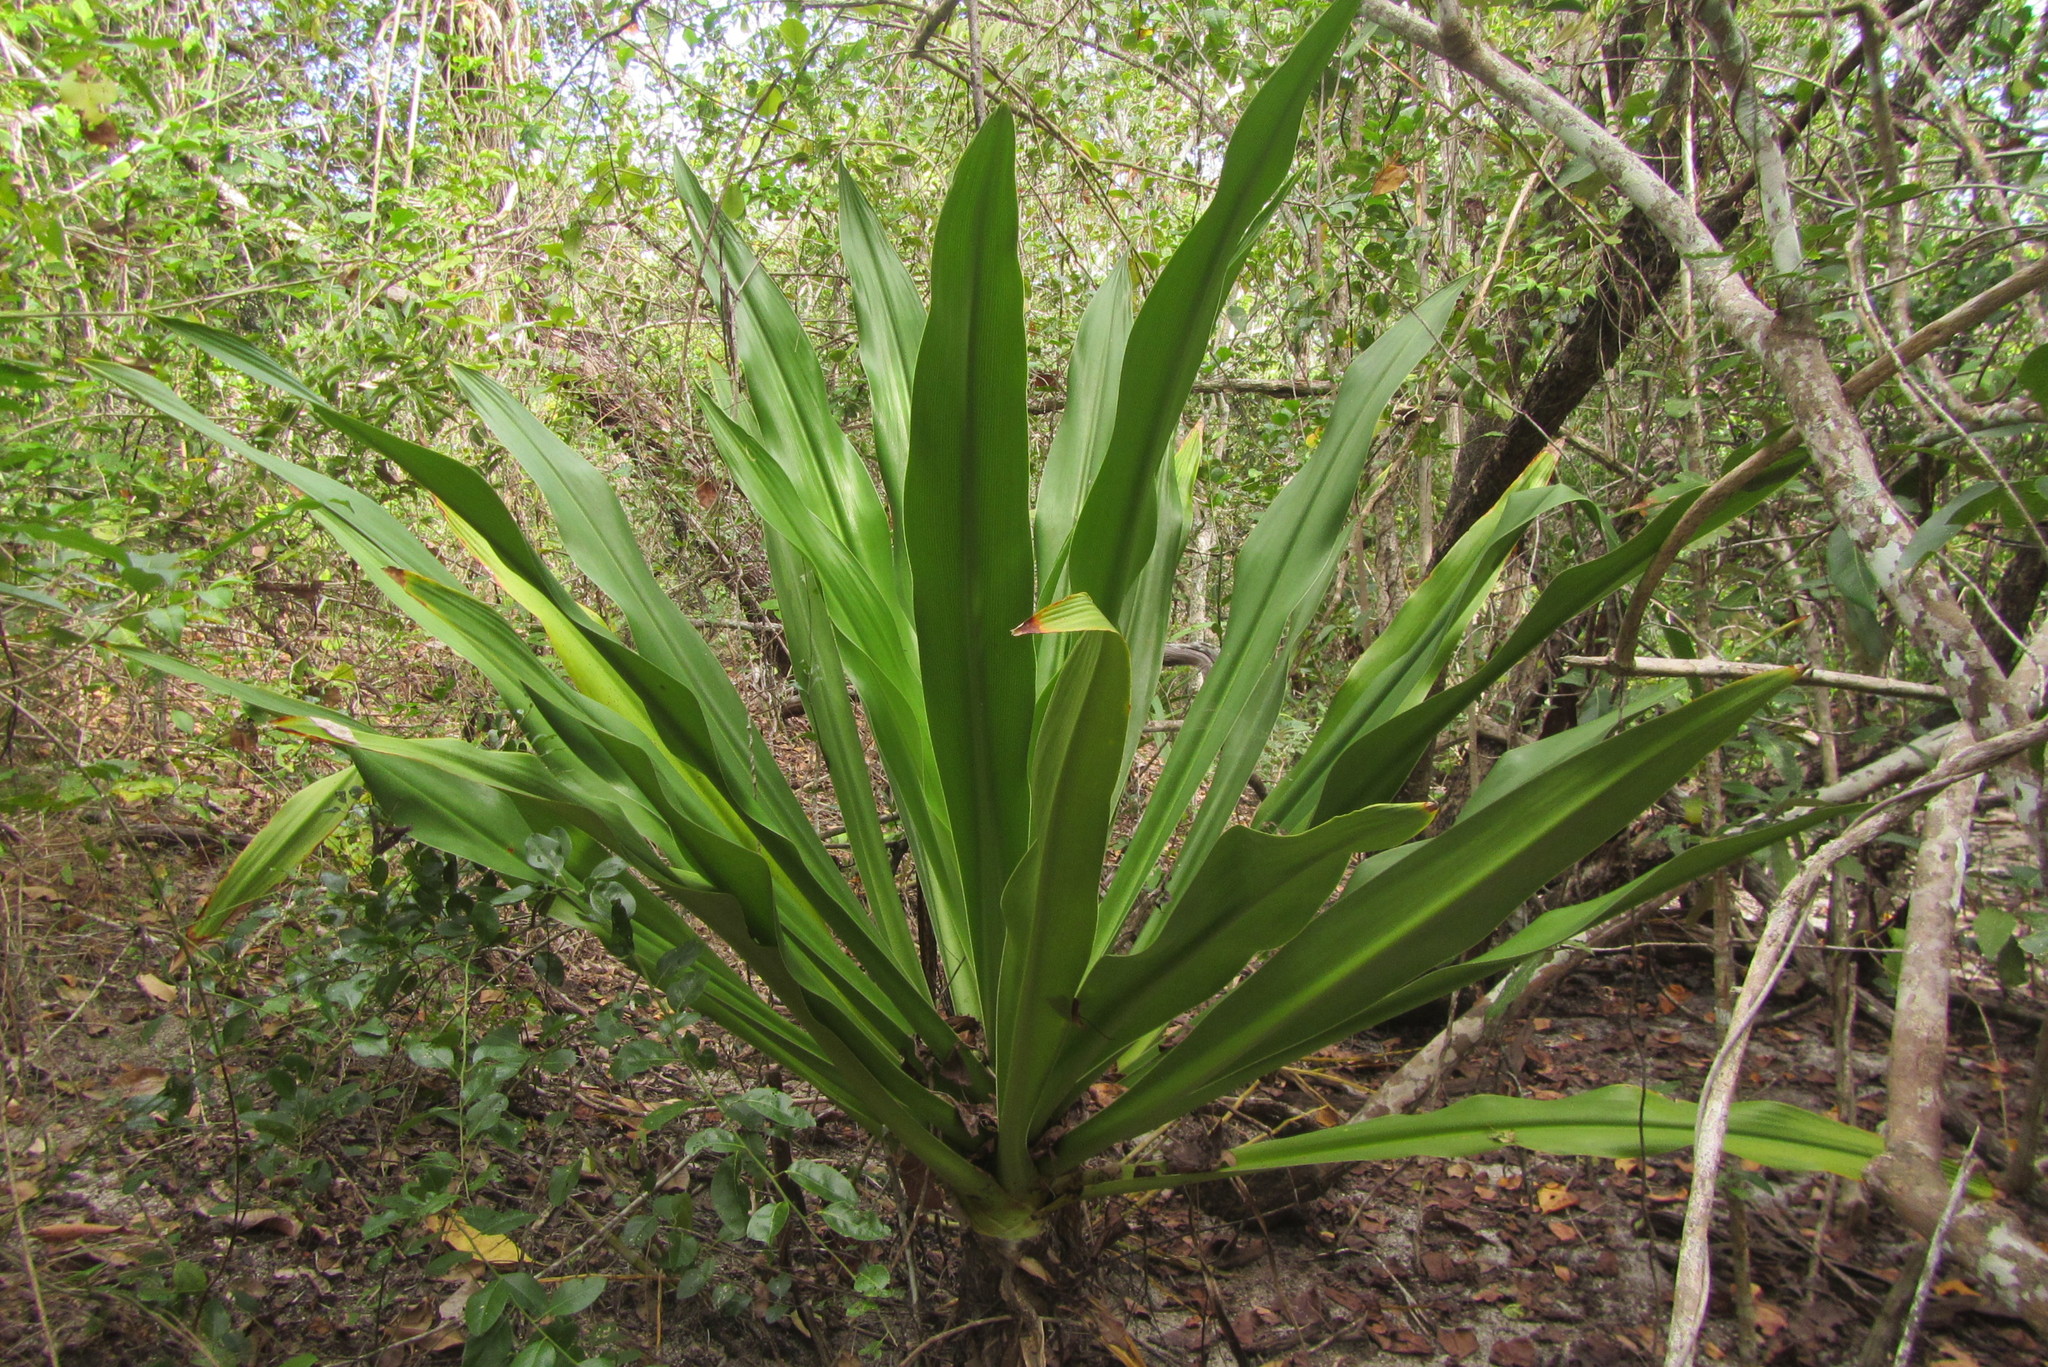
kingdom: Plantae
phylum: Tracheophyta
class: Liliopsida
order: Asparagales
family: Amaryllidaceae
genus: Crinum
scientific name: Crinum pedunculatum
